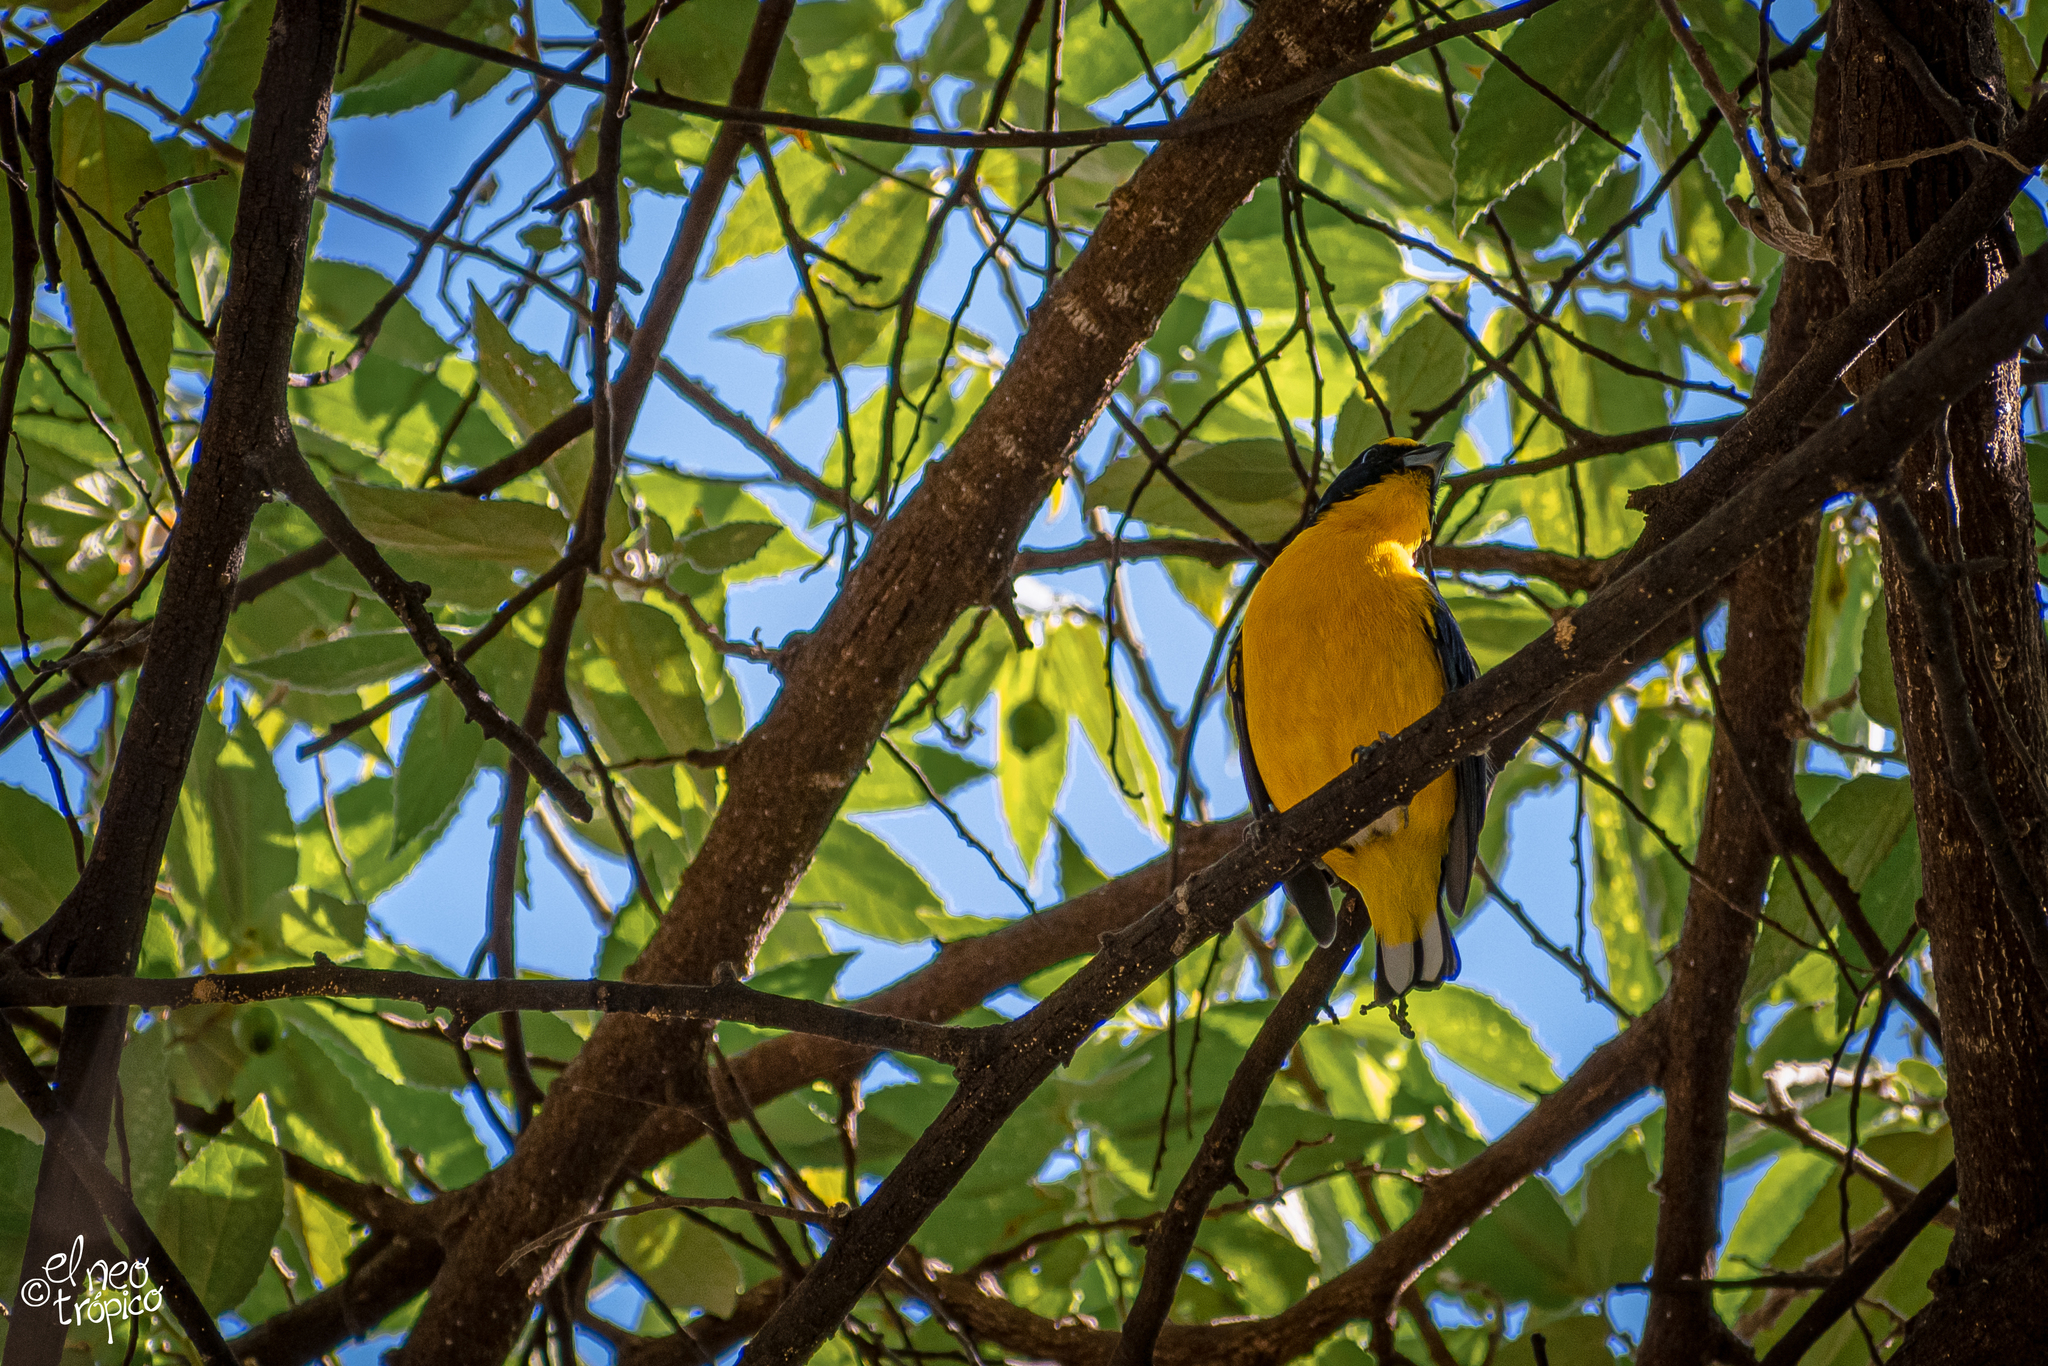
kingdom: Animalia
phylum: Chordata
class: Aves
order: Passeriformes
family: Fringillidae
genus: Euphonia
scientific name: Euphonia hirundinacea
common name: Yellow-throated euphonia
